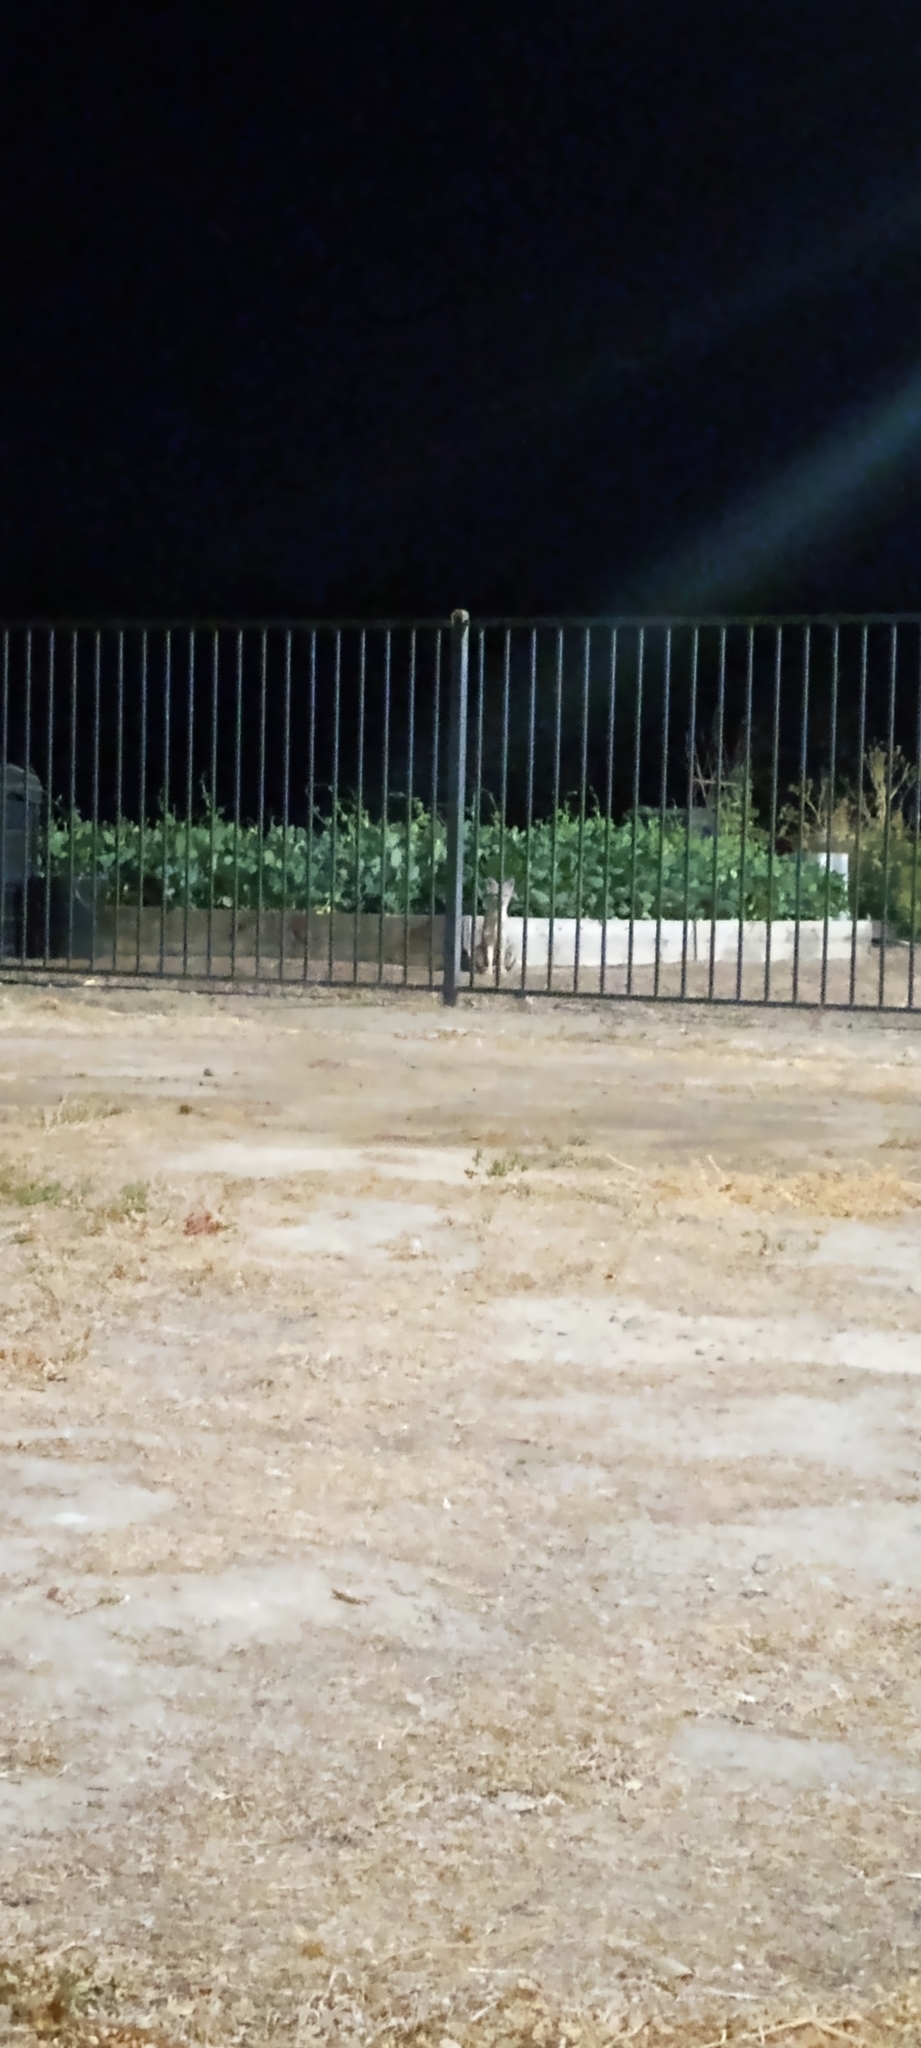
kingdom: Animalia
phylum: Chordata
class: Mammalia
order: Carnivora
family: Canidae
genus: Urocyon
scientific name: Urocyon cinereoargenteus
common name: Gray fox
